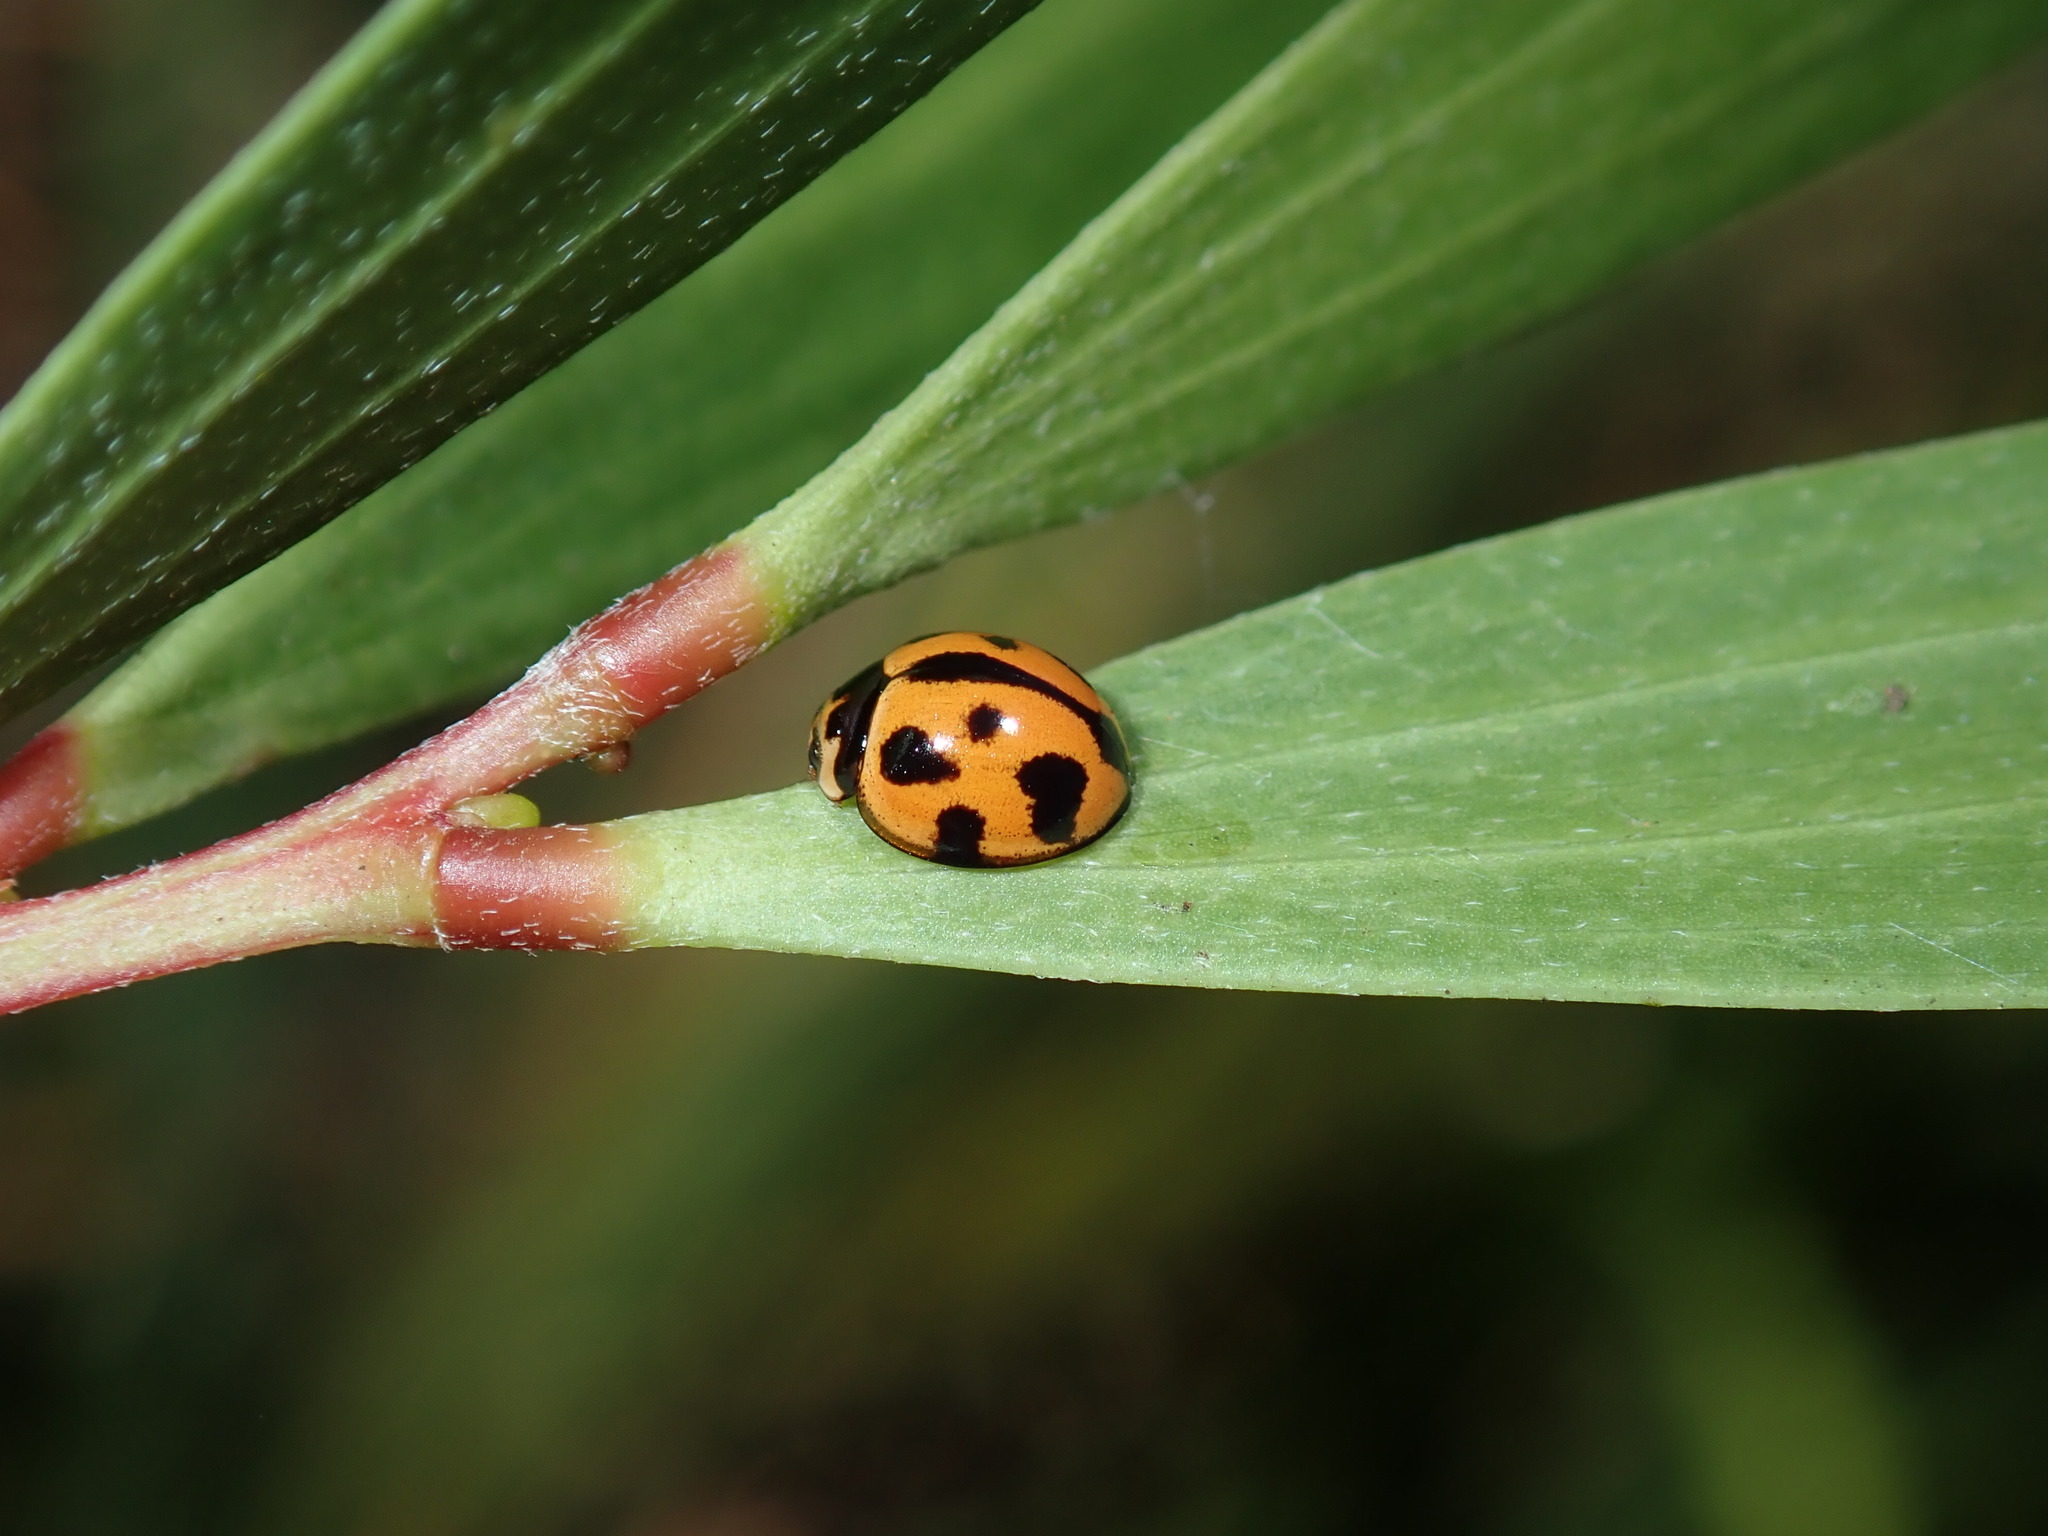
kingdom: Animalia
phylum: Arthropoda
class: Insecta
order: Coleoptera
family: Coccinellidae
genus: Coelophora
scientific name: Coelophora inaequalis
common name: Common australian lady beetle
